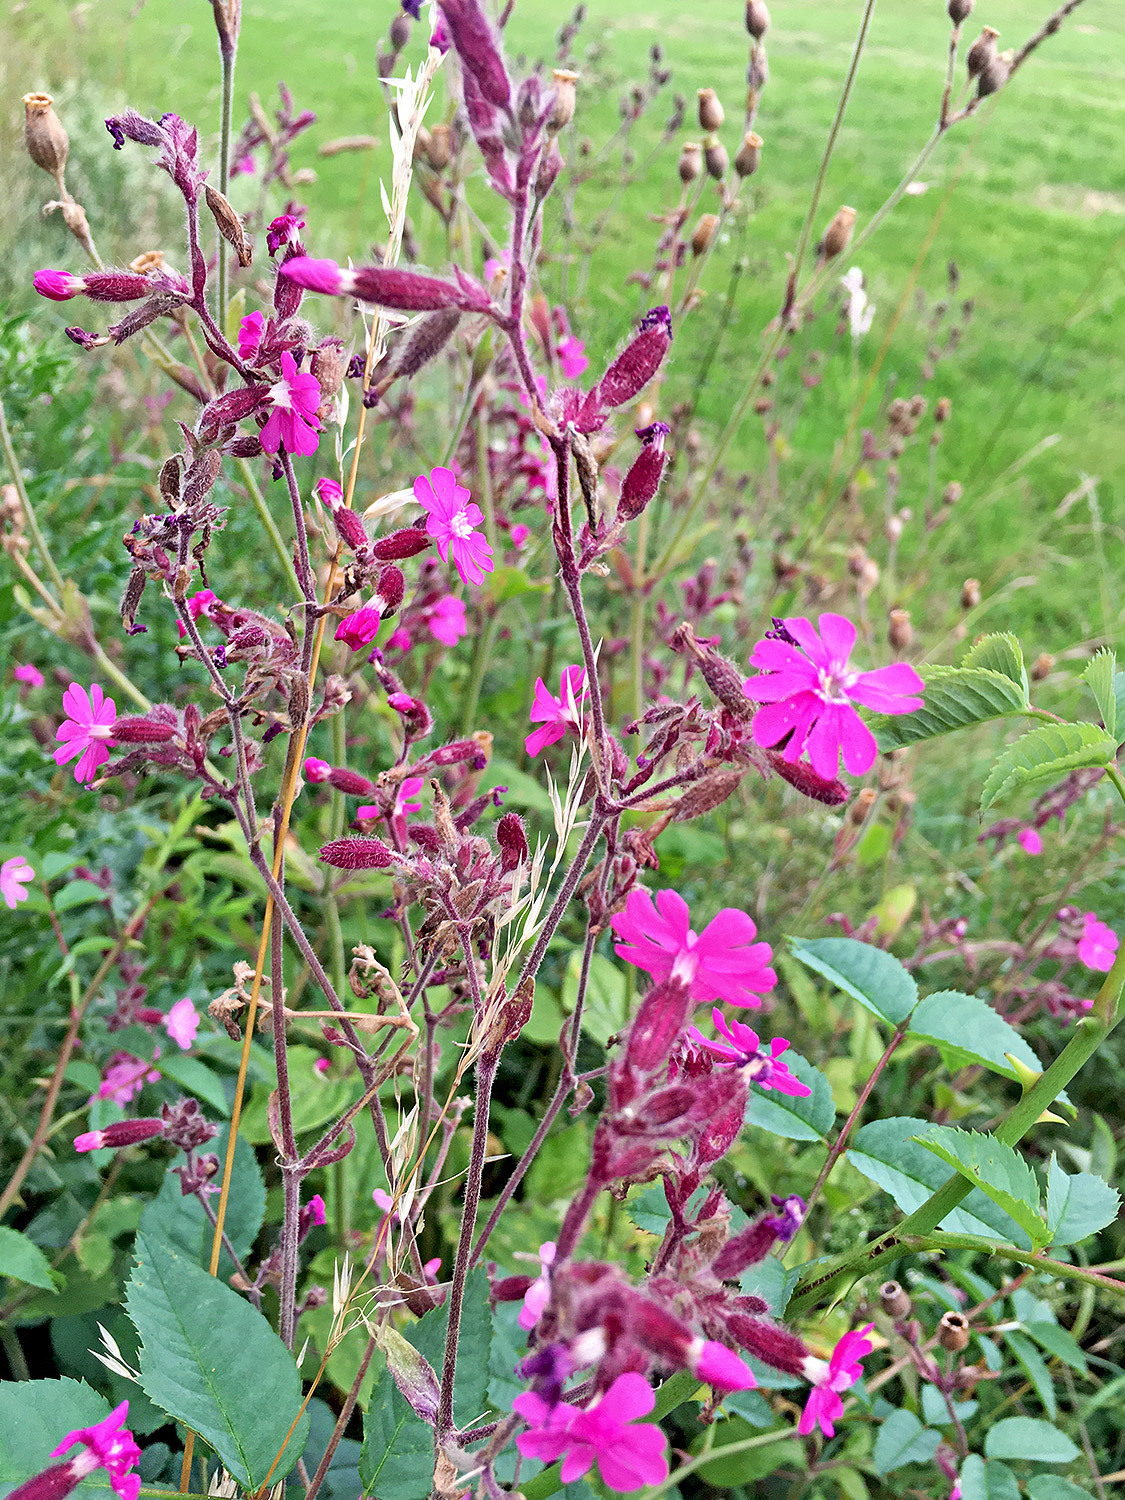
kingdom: Plantae
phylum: Tracheophyta
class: Magnoliopsida
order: Caryophyllales
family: Caryophyllaceae
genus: Silene
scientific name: Silene dioica
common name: Red campion
